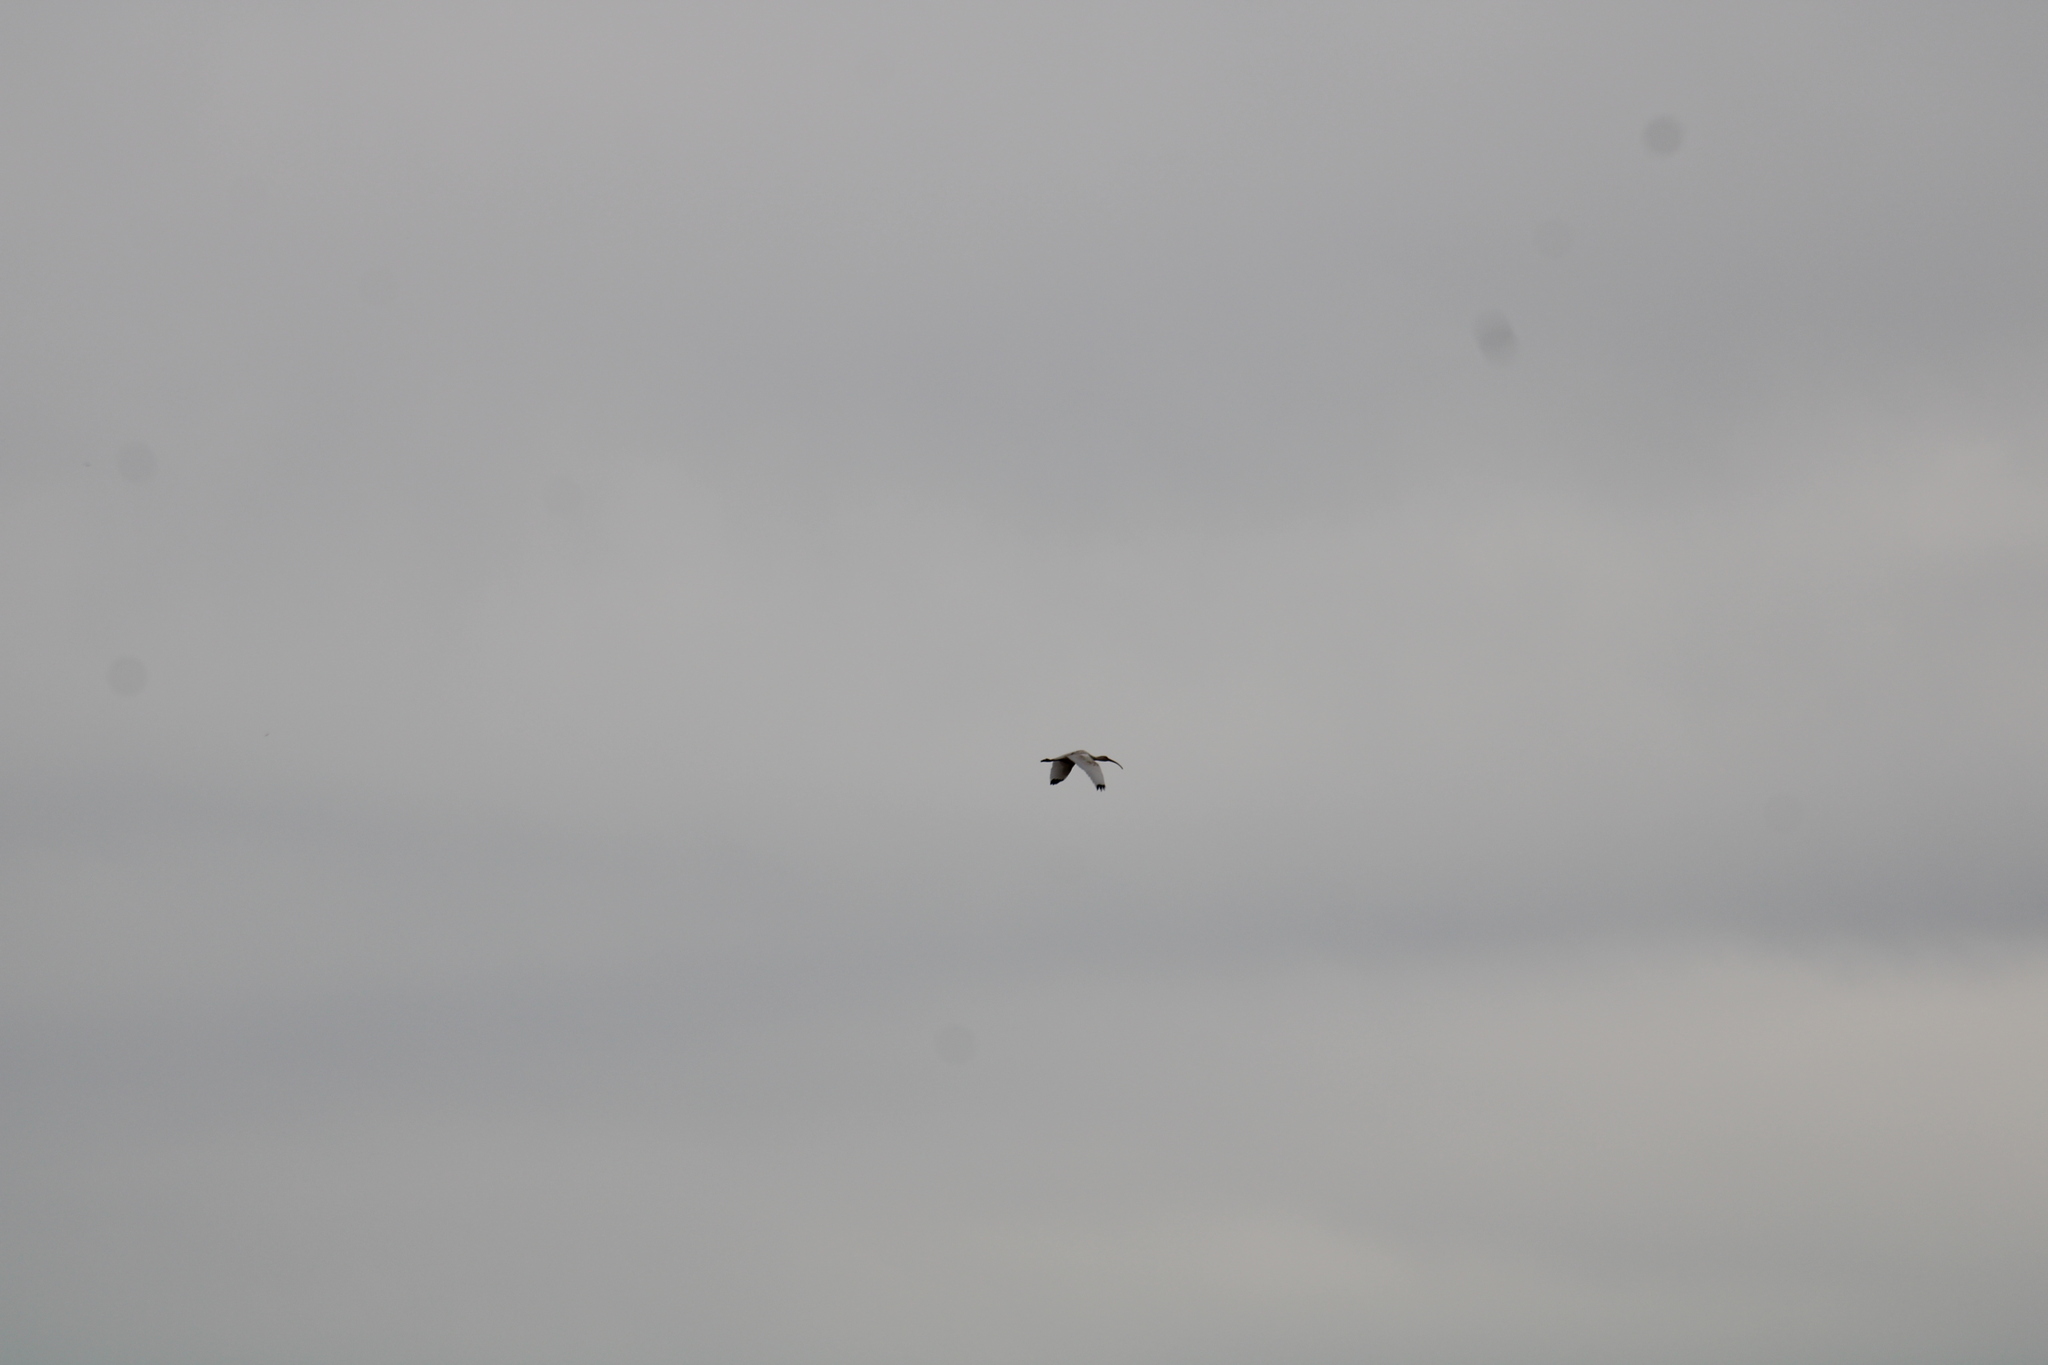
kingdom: Animalia
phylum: Chordata
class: Aves
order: Pelecaniformes
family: Threskiornithidae
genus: Eudocimus
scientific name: Eudocimus albus
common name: White ibis
